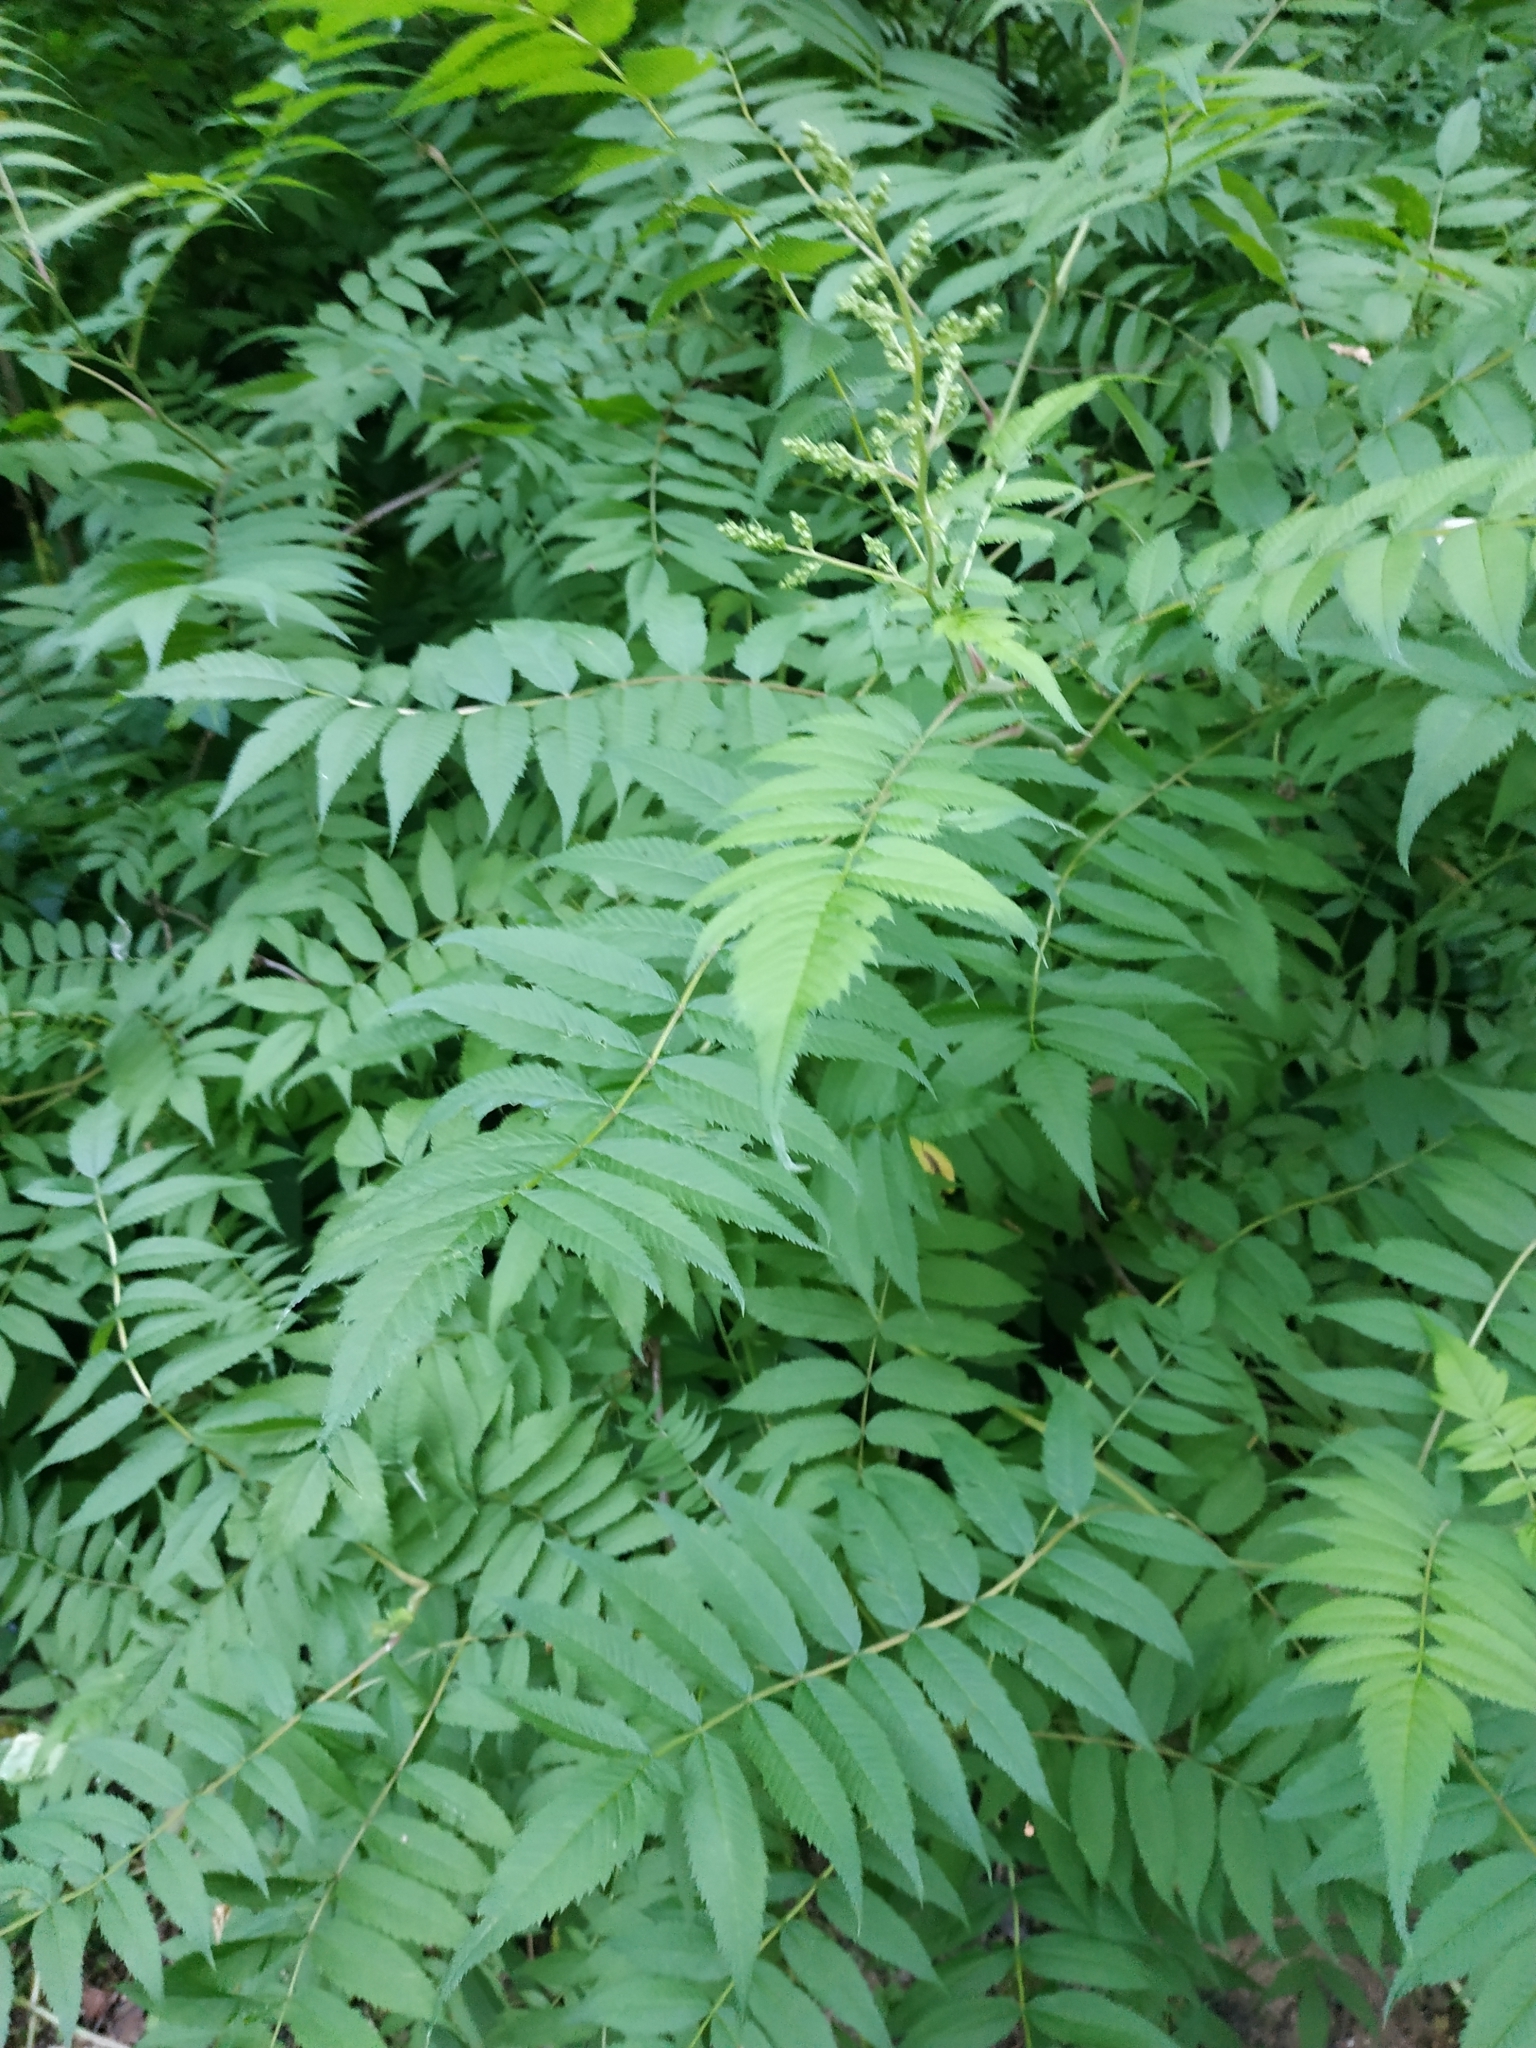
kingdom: Plantae
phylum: Tracheophyta
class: Magnoliopsida
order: Rosales
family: Rosaceae
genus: Sorbaria
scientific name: Sorbaria sorbifolia
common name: False spiraea
